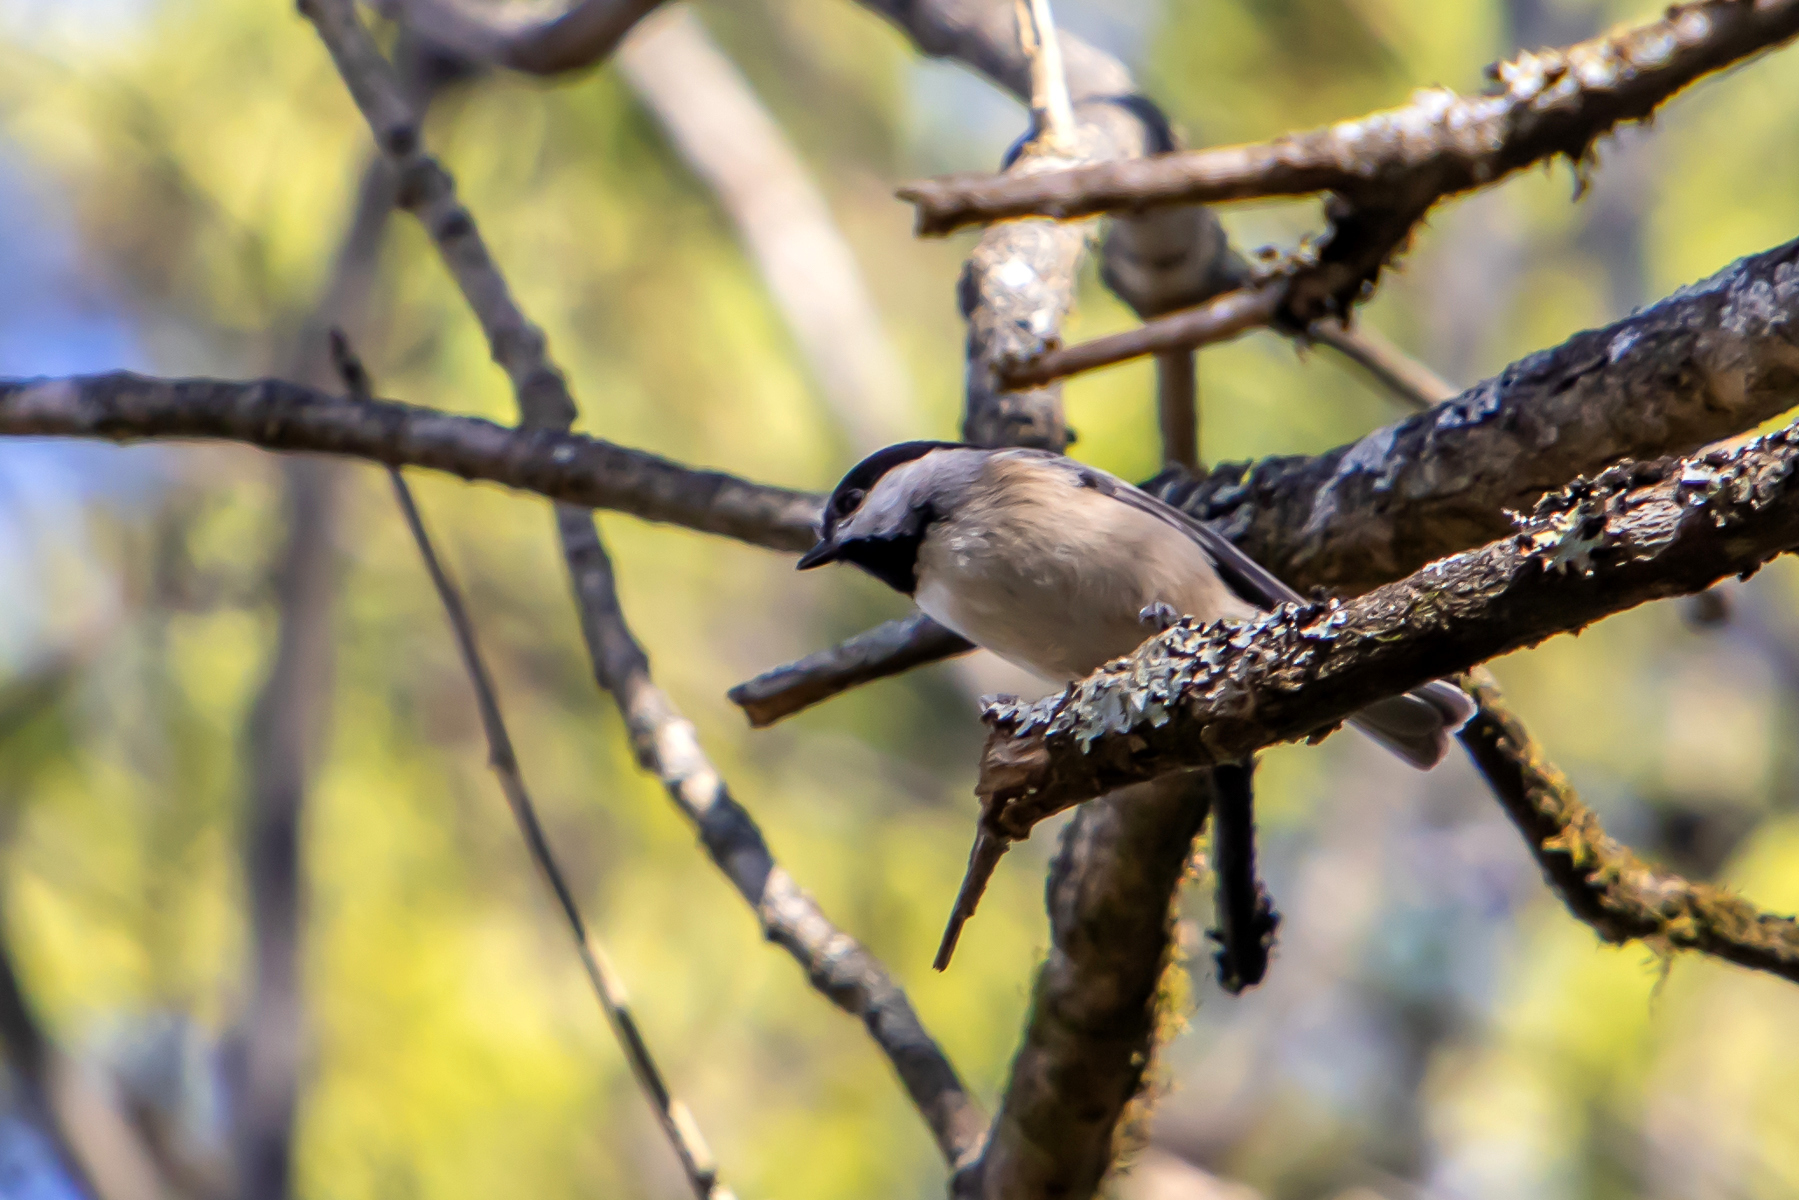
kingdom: Animalia
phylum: Chordata
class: Aves
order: Passeriformes
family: Paridae
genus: Poecile
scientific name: Poecile carolinensis
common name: Carolina chickadee
